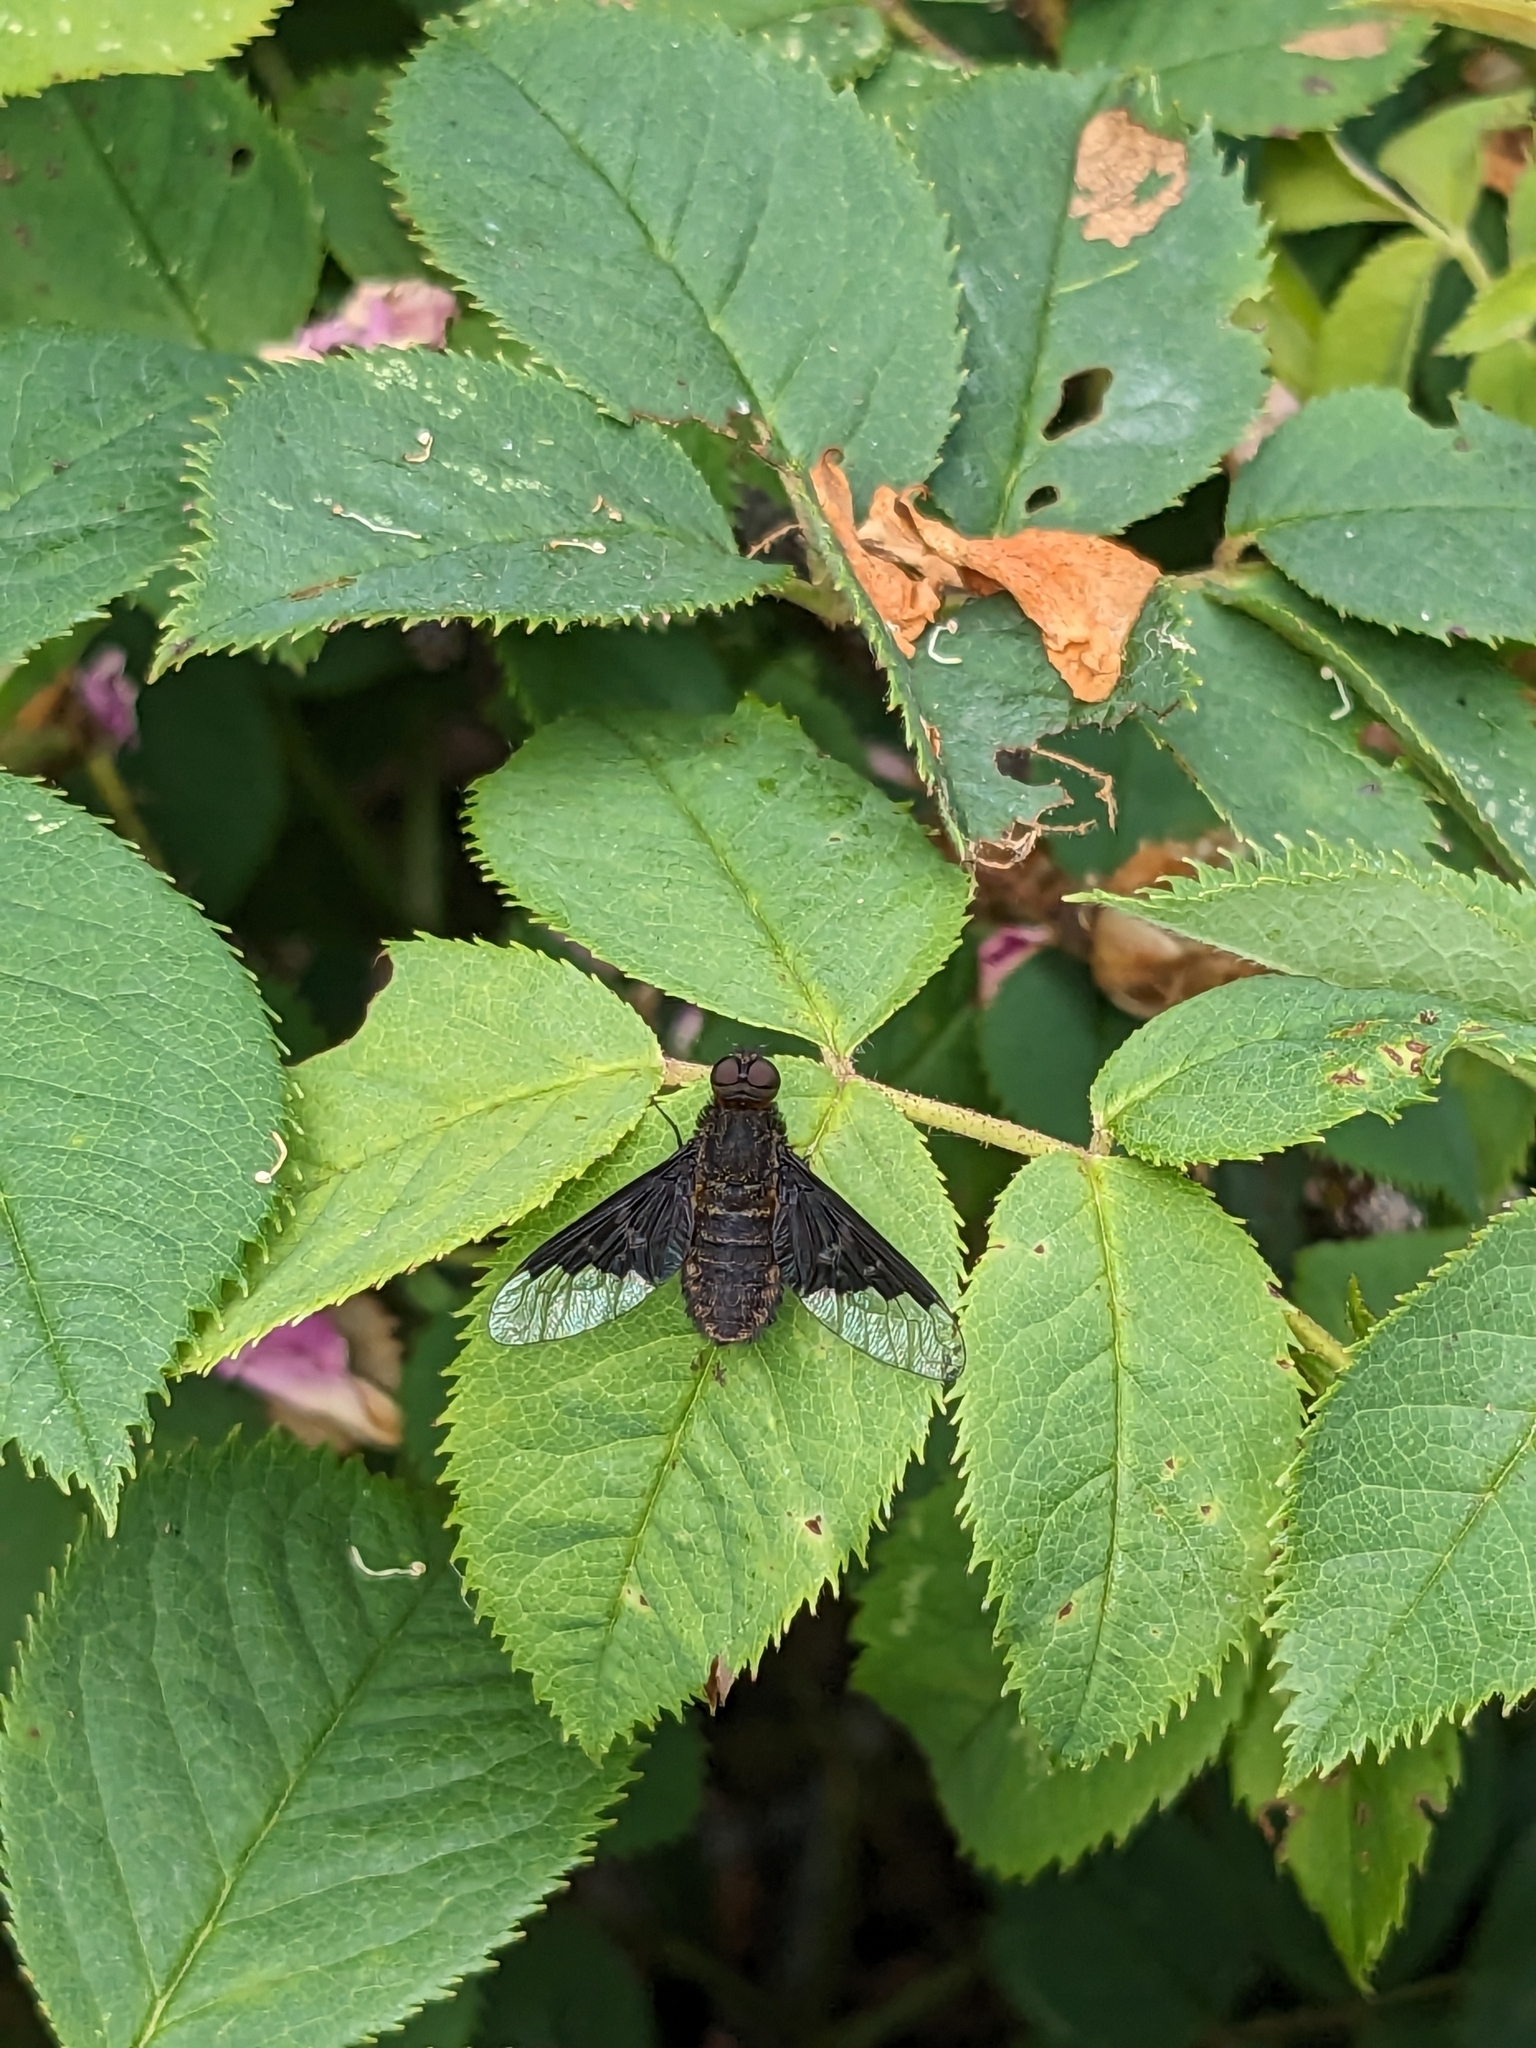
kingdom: Animalia
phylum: Arthropoda
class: Insecta
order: Diptera
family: Bombyliidae
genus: Hemipenthes
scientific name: Hemipenthes morio
